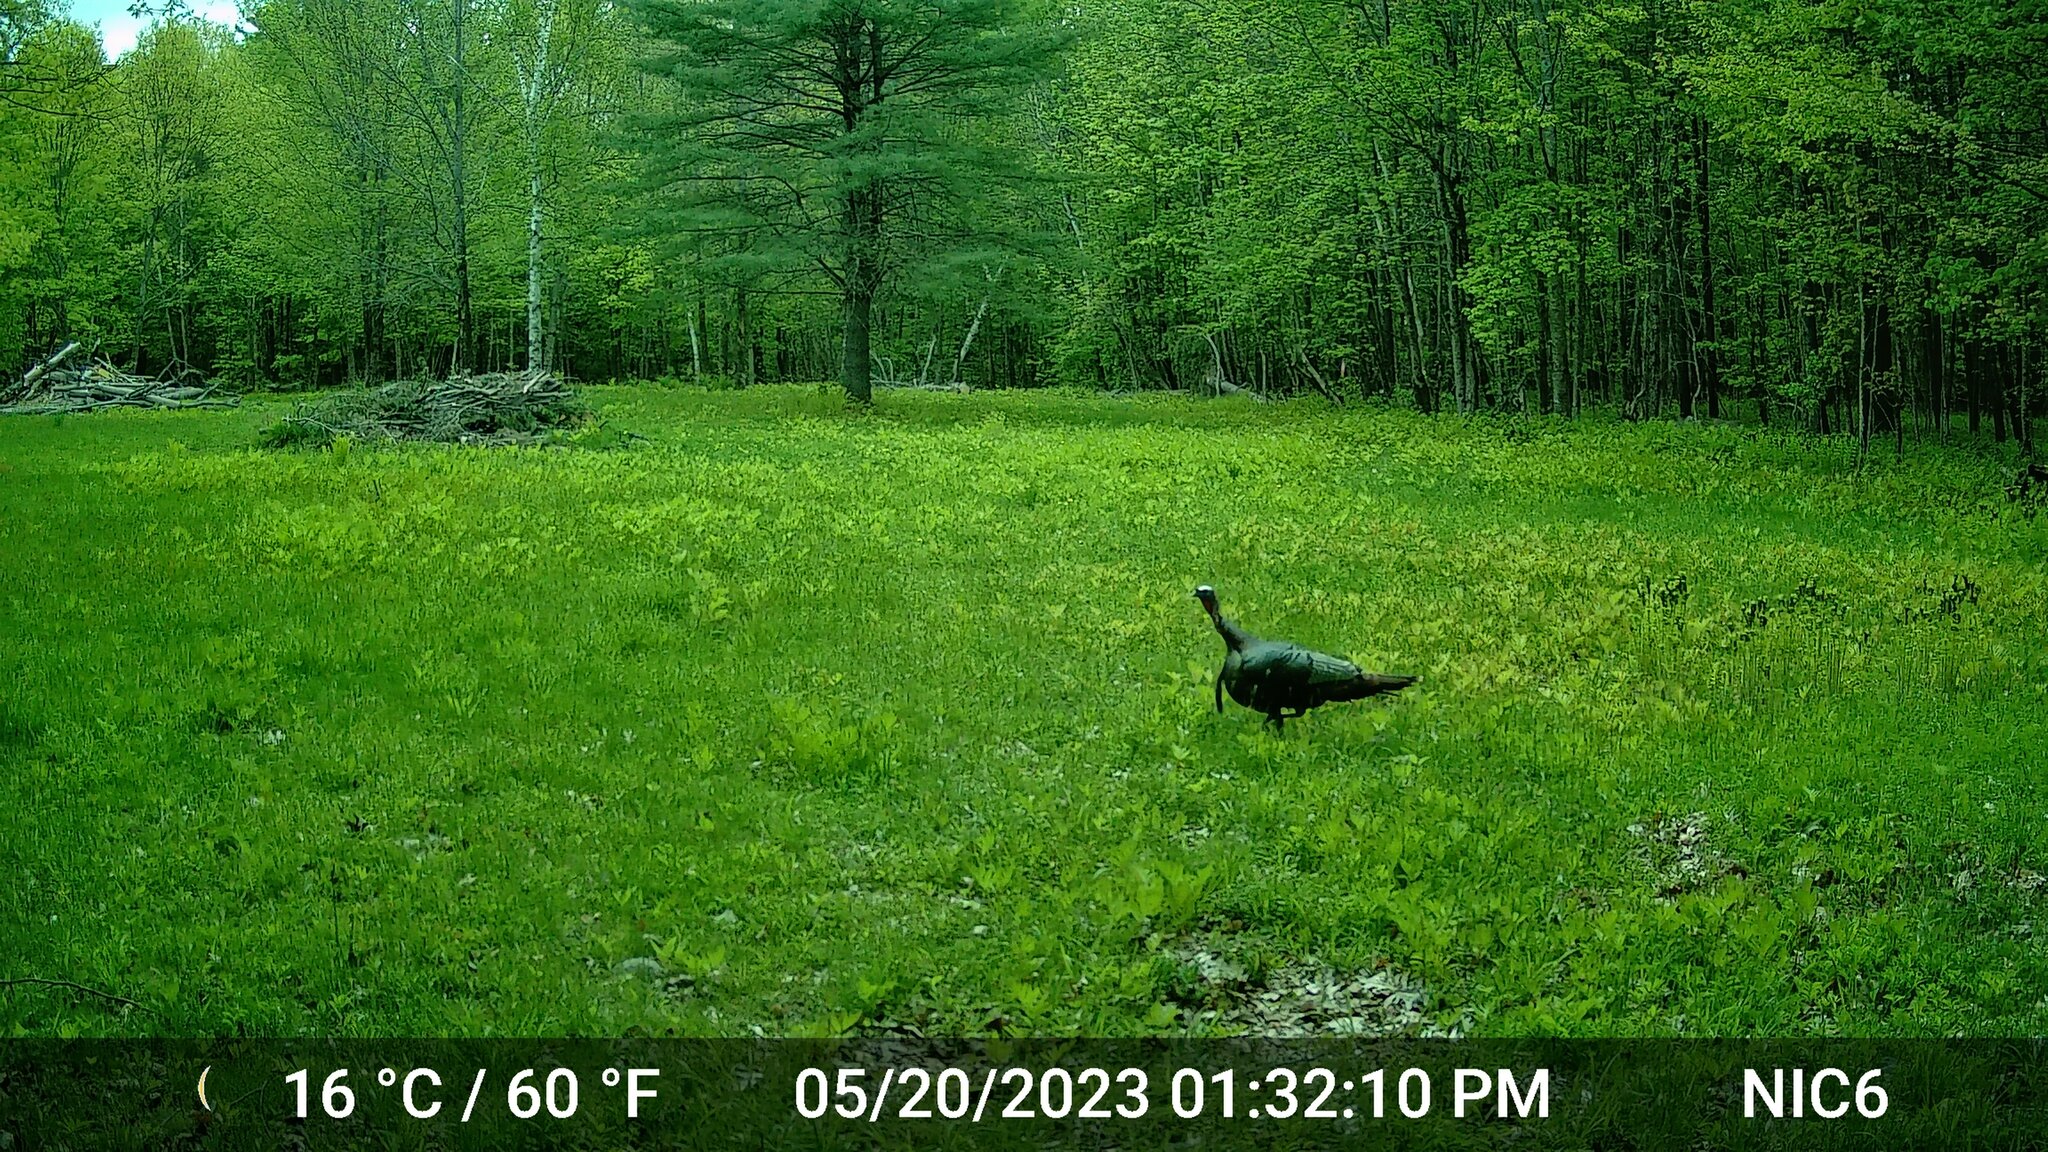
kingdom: Animalia
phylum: Chordata
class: Aves
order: Galliformes
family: Phasianidae
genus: Meleagris
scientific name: Meleagris gallopavo
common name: Wild turkey
